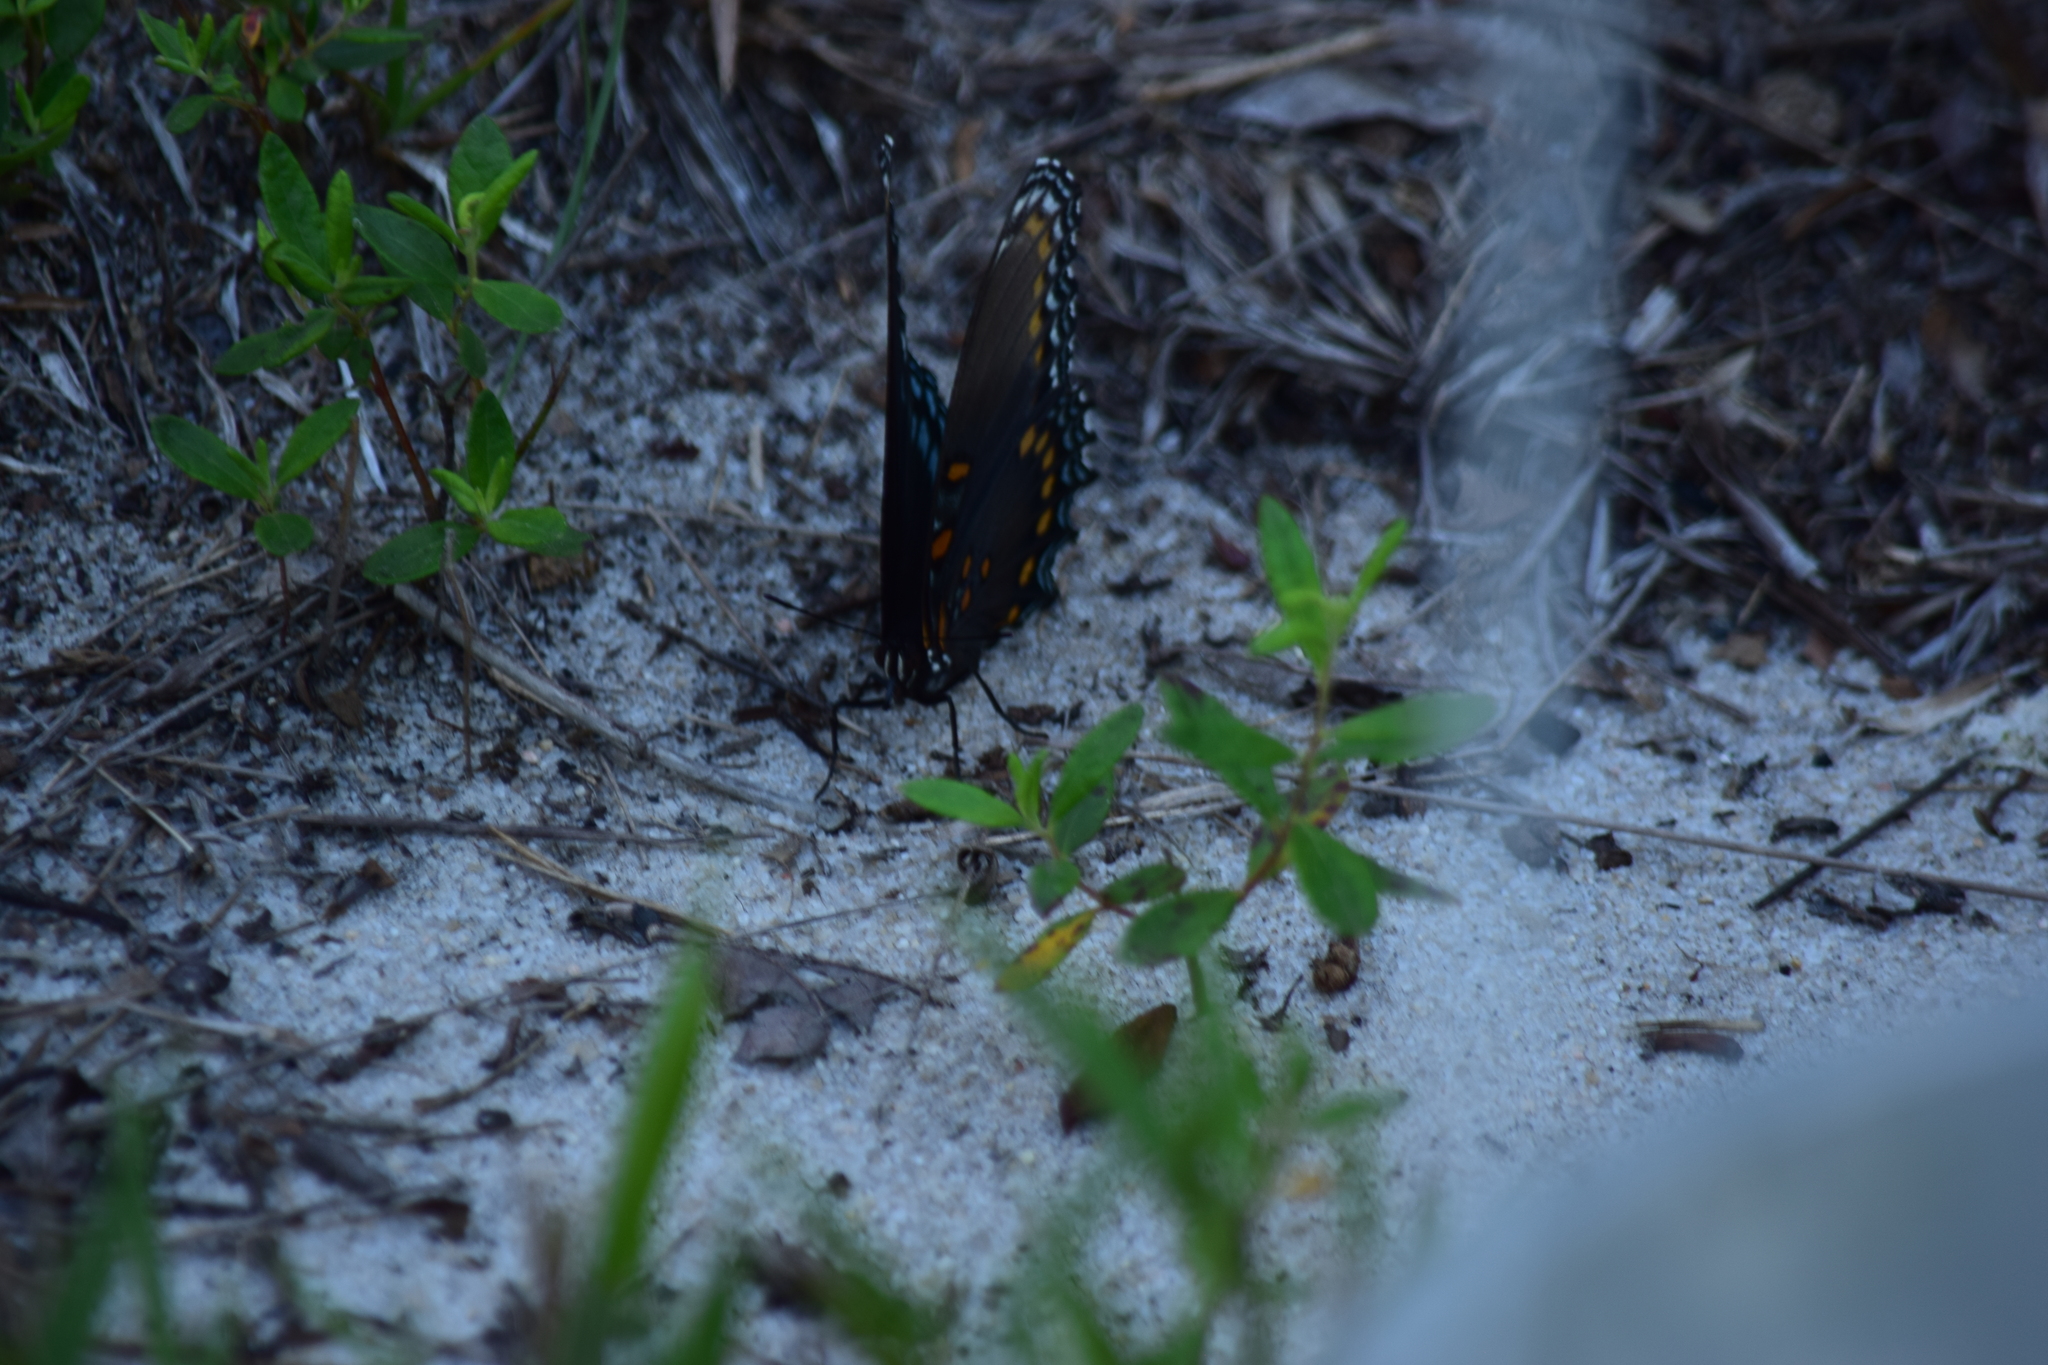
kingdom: Animalia
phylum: Arthropoda
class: Insecta
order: Lepidoptera
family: Nymphalidae
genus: Limenitis
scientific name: Limenitis astyanax
